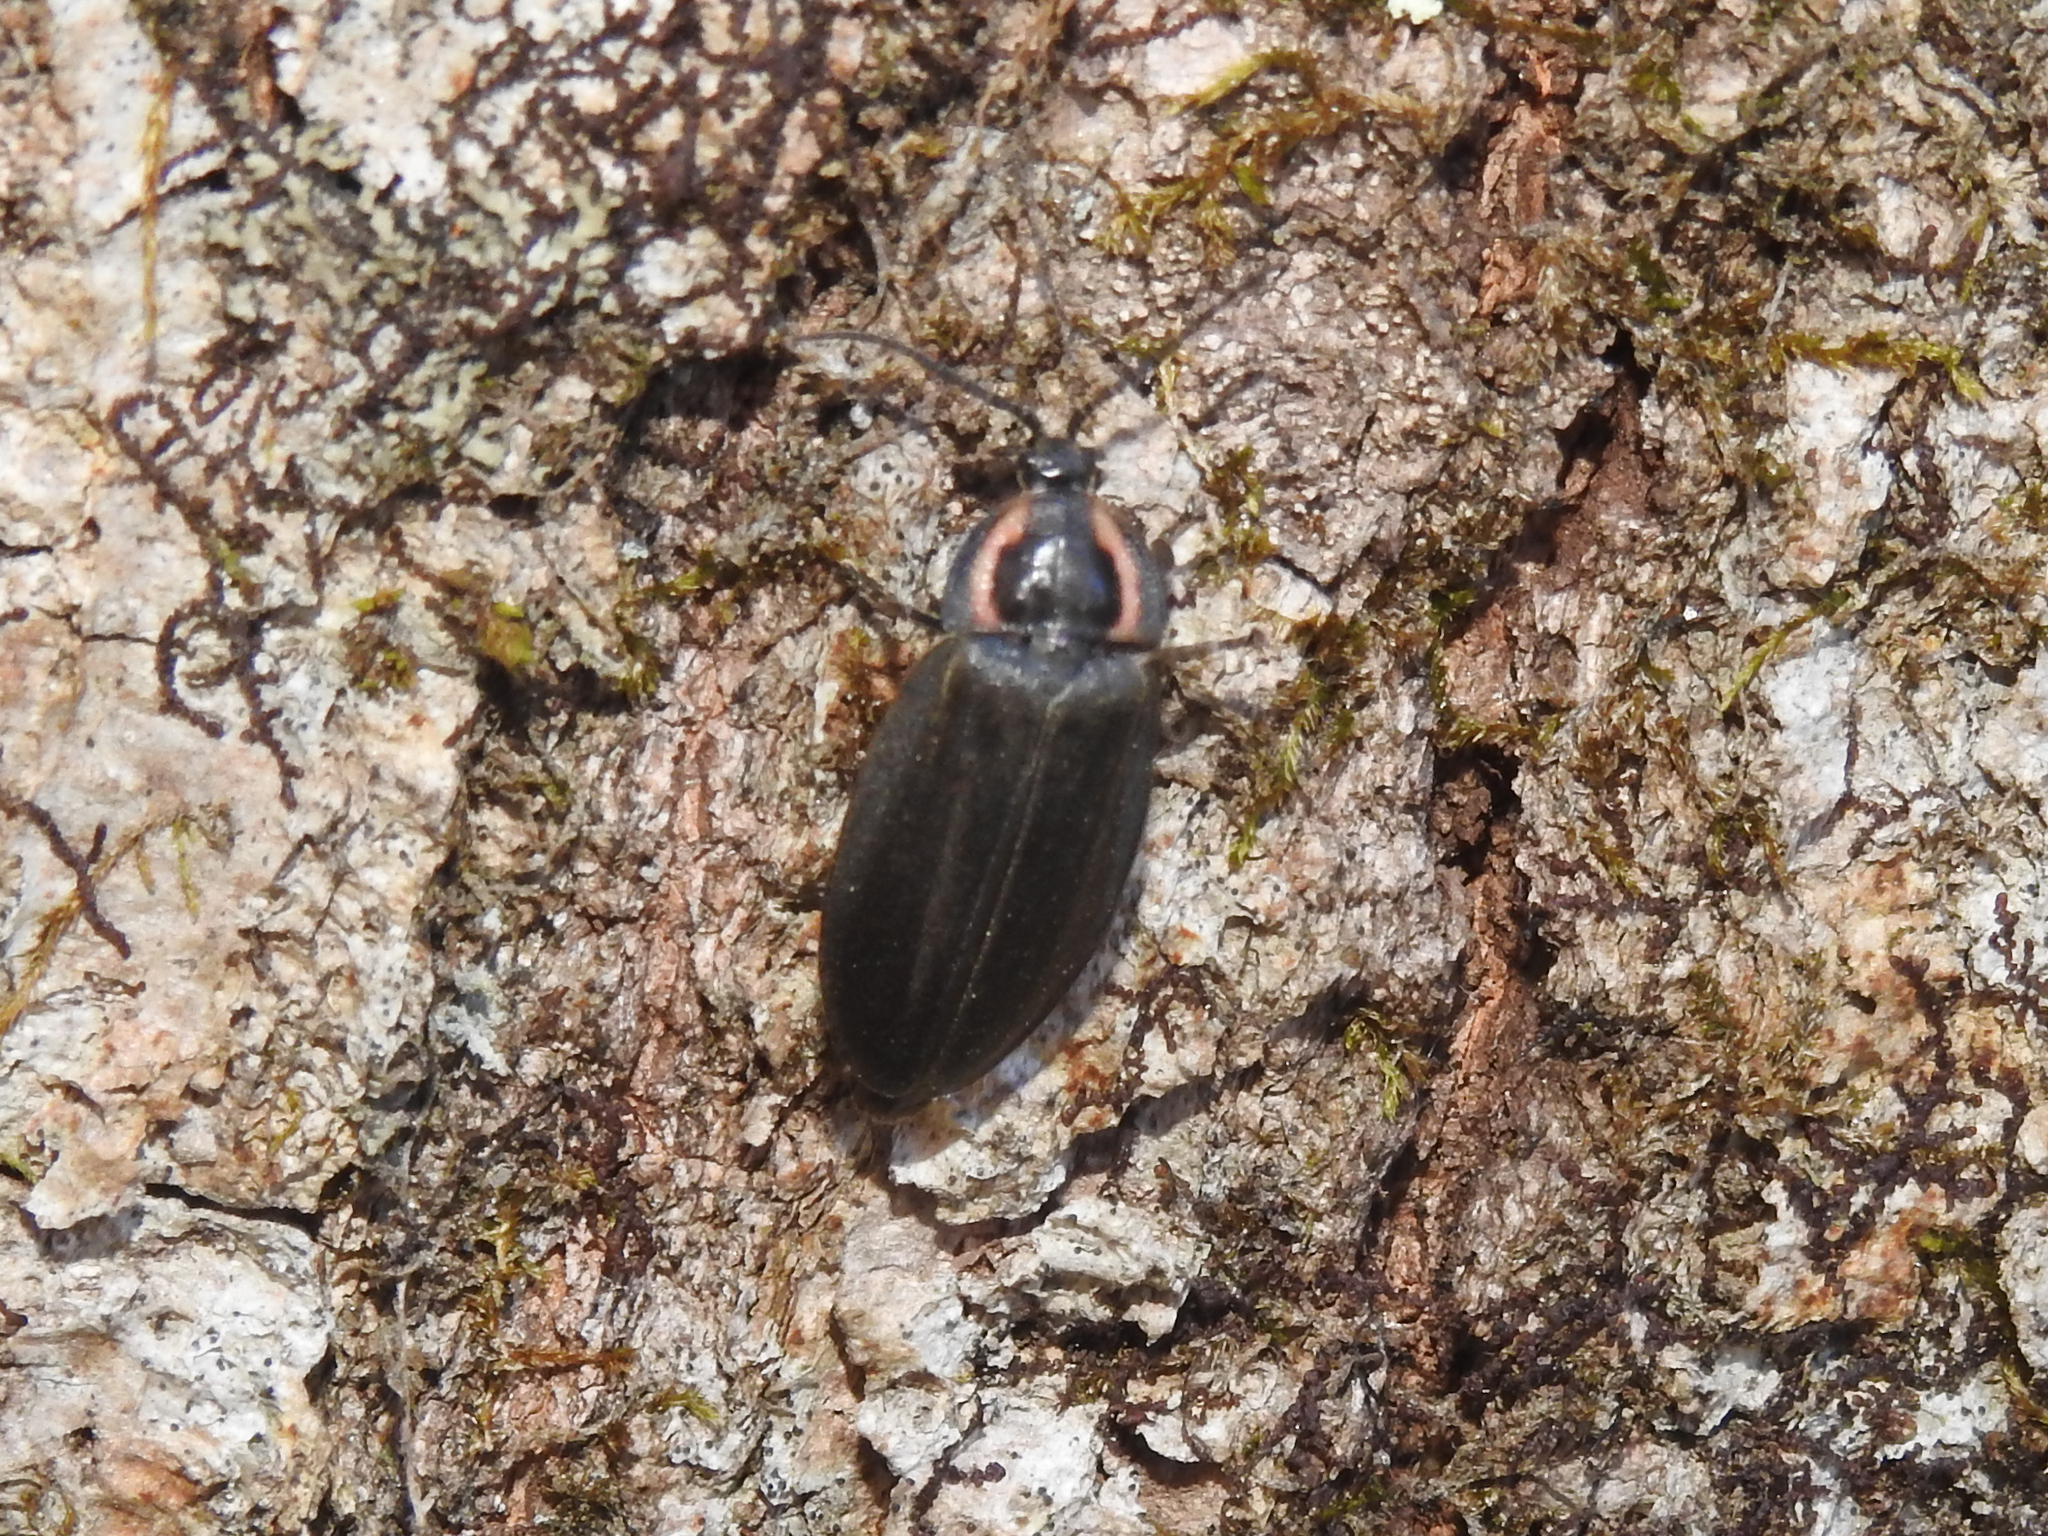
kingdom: Animalia
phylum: Arthropoda
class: Insecta
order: Coleoptera
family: Lampyridae
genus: Photinus
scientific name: Photinus corrusca
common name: Winter firefly
